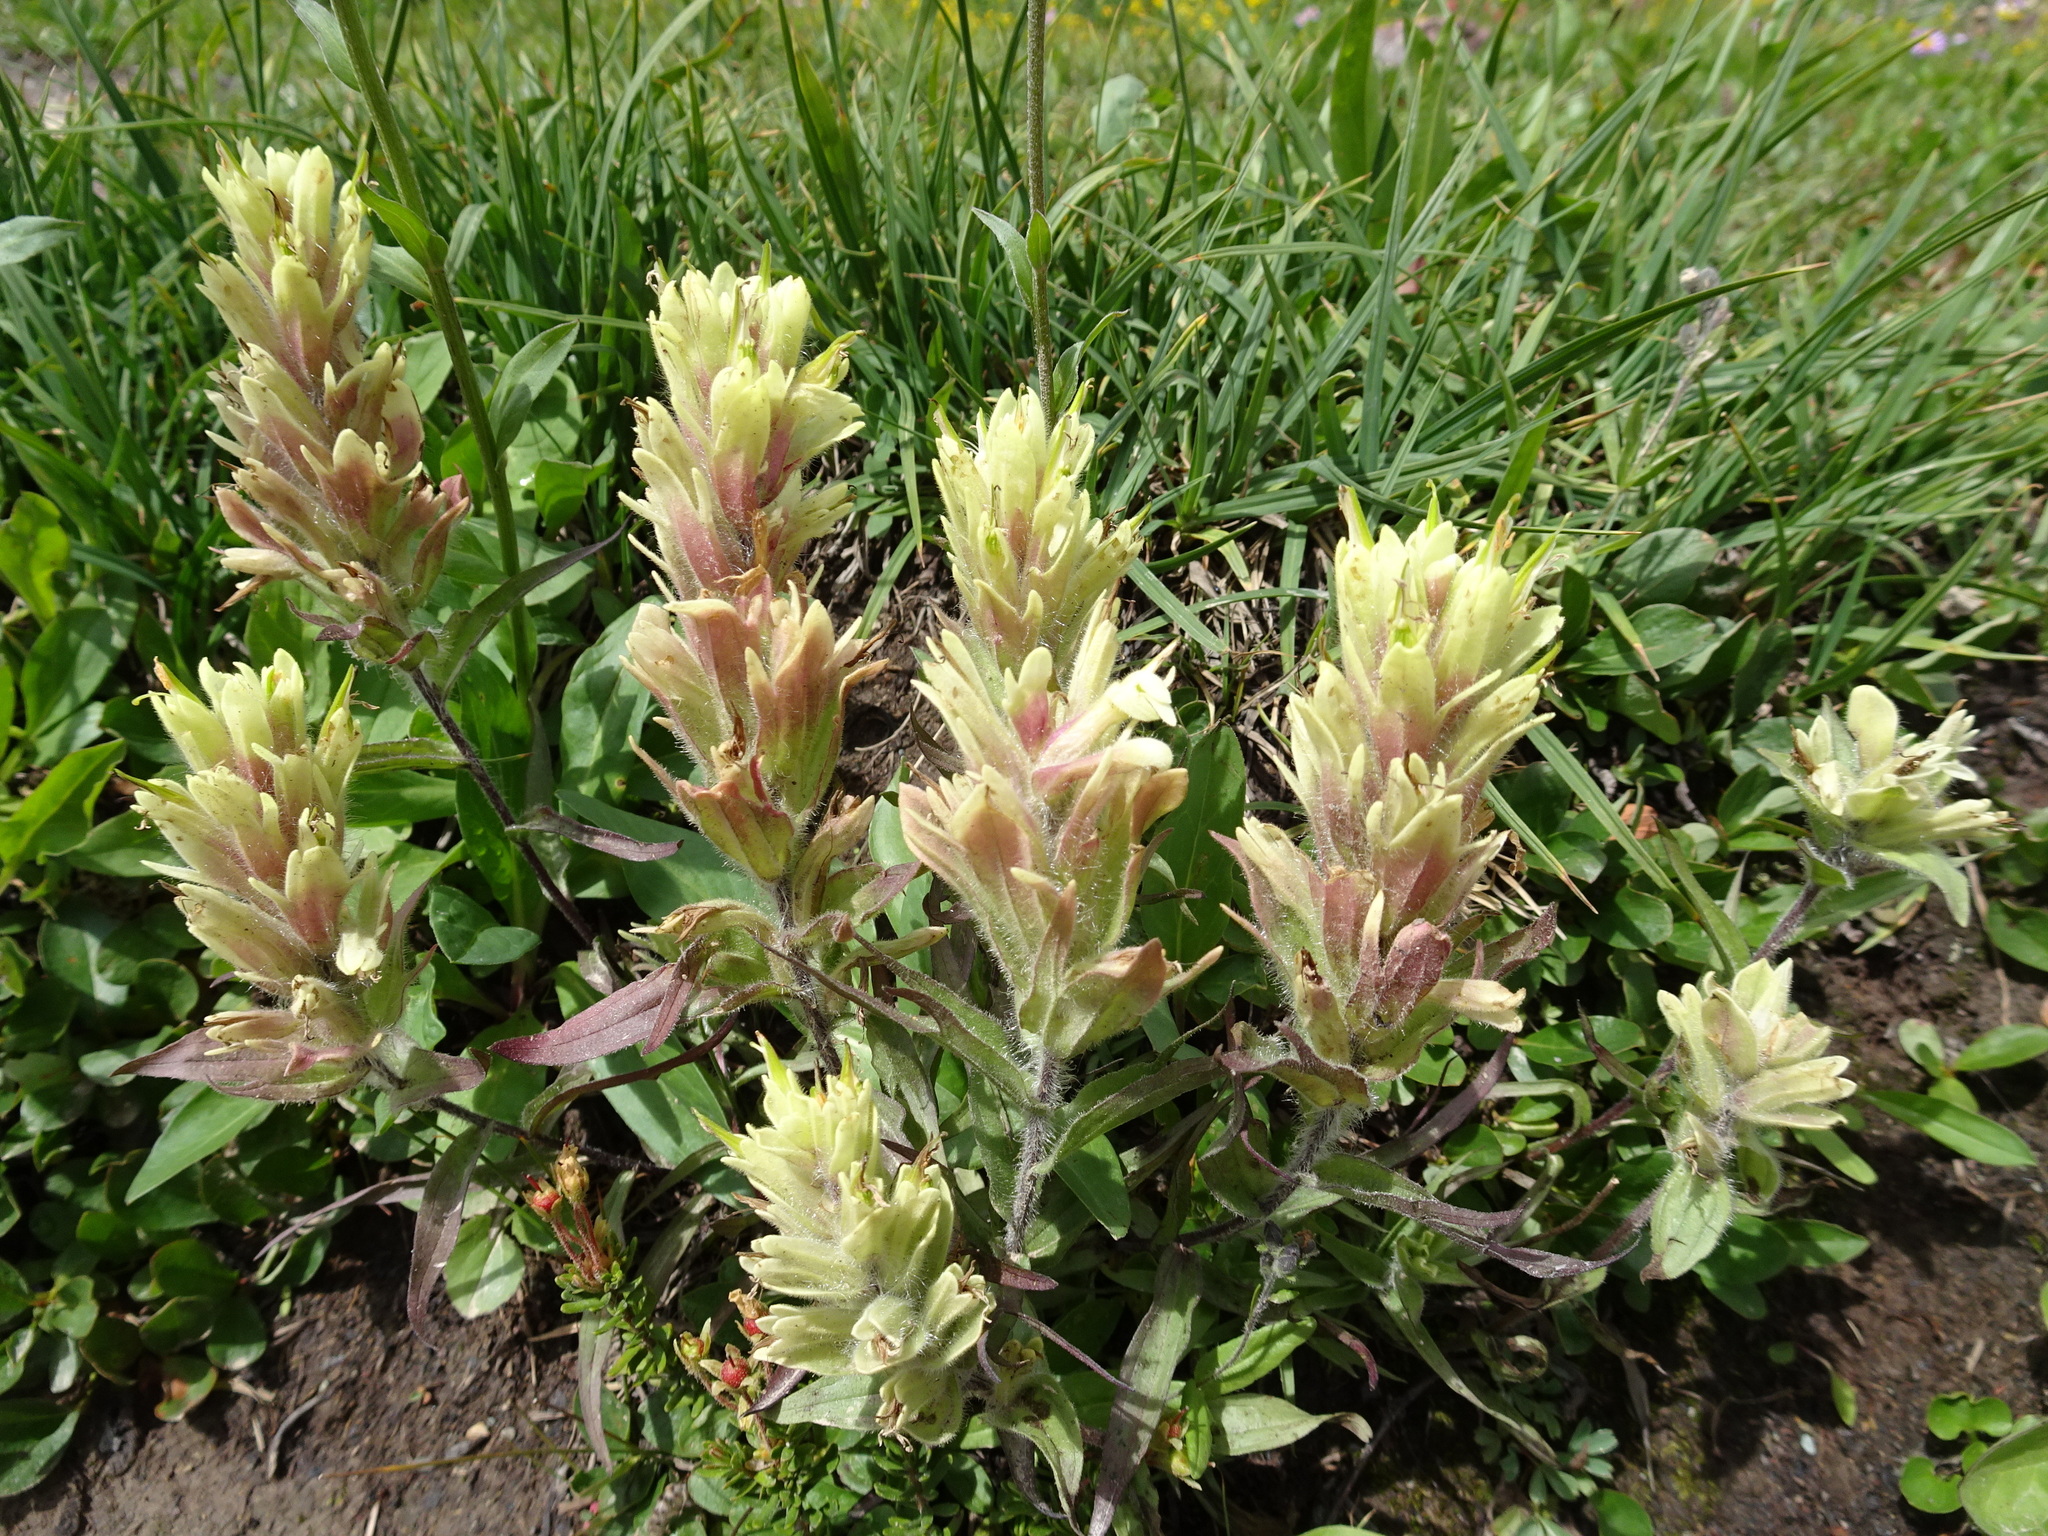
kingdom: Plantae
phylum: Tracheophyta
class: Magnoliopsida
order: Lamiales
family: Orobanchaceae
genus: Castilleja
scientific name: Castilleja occidentalis
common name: Western paintbrush
